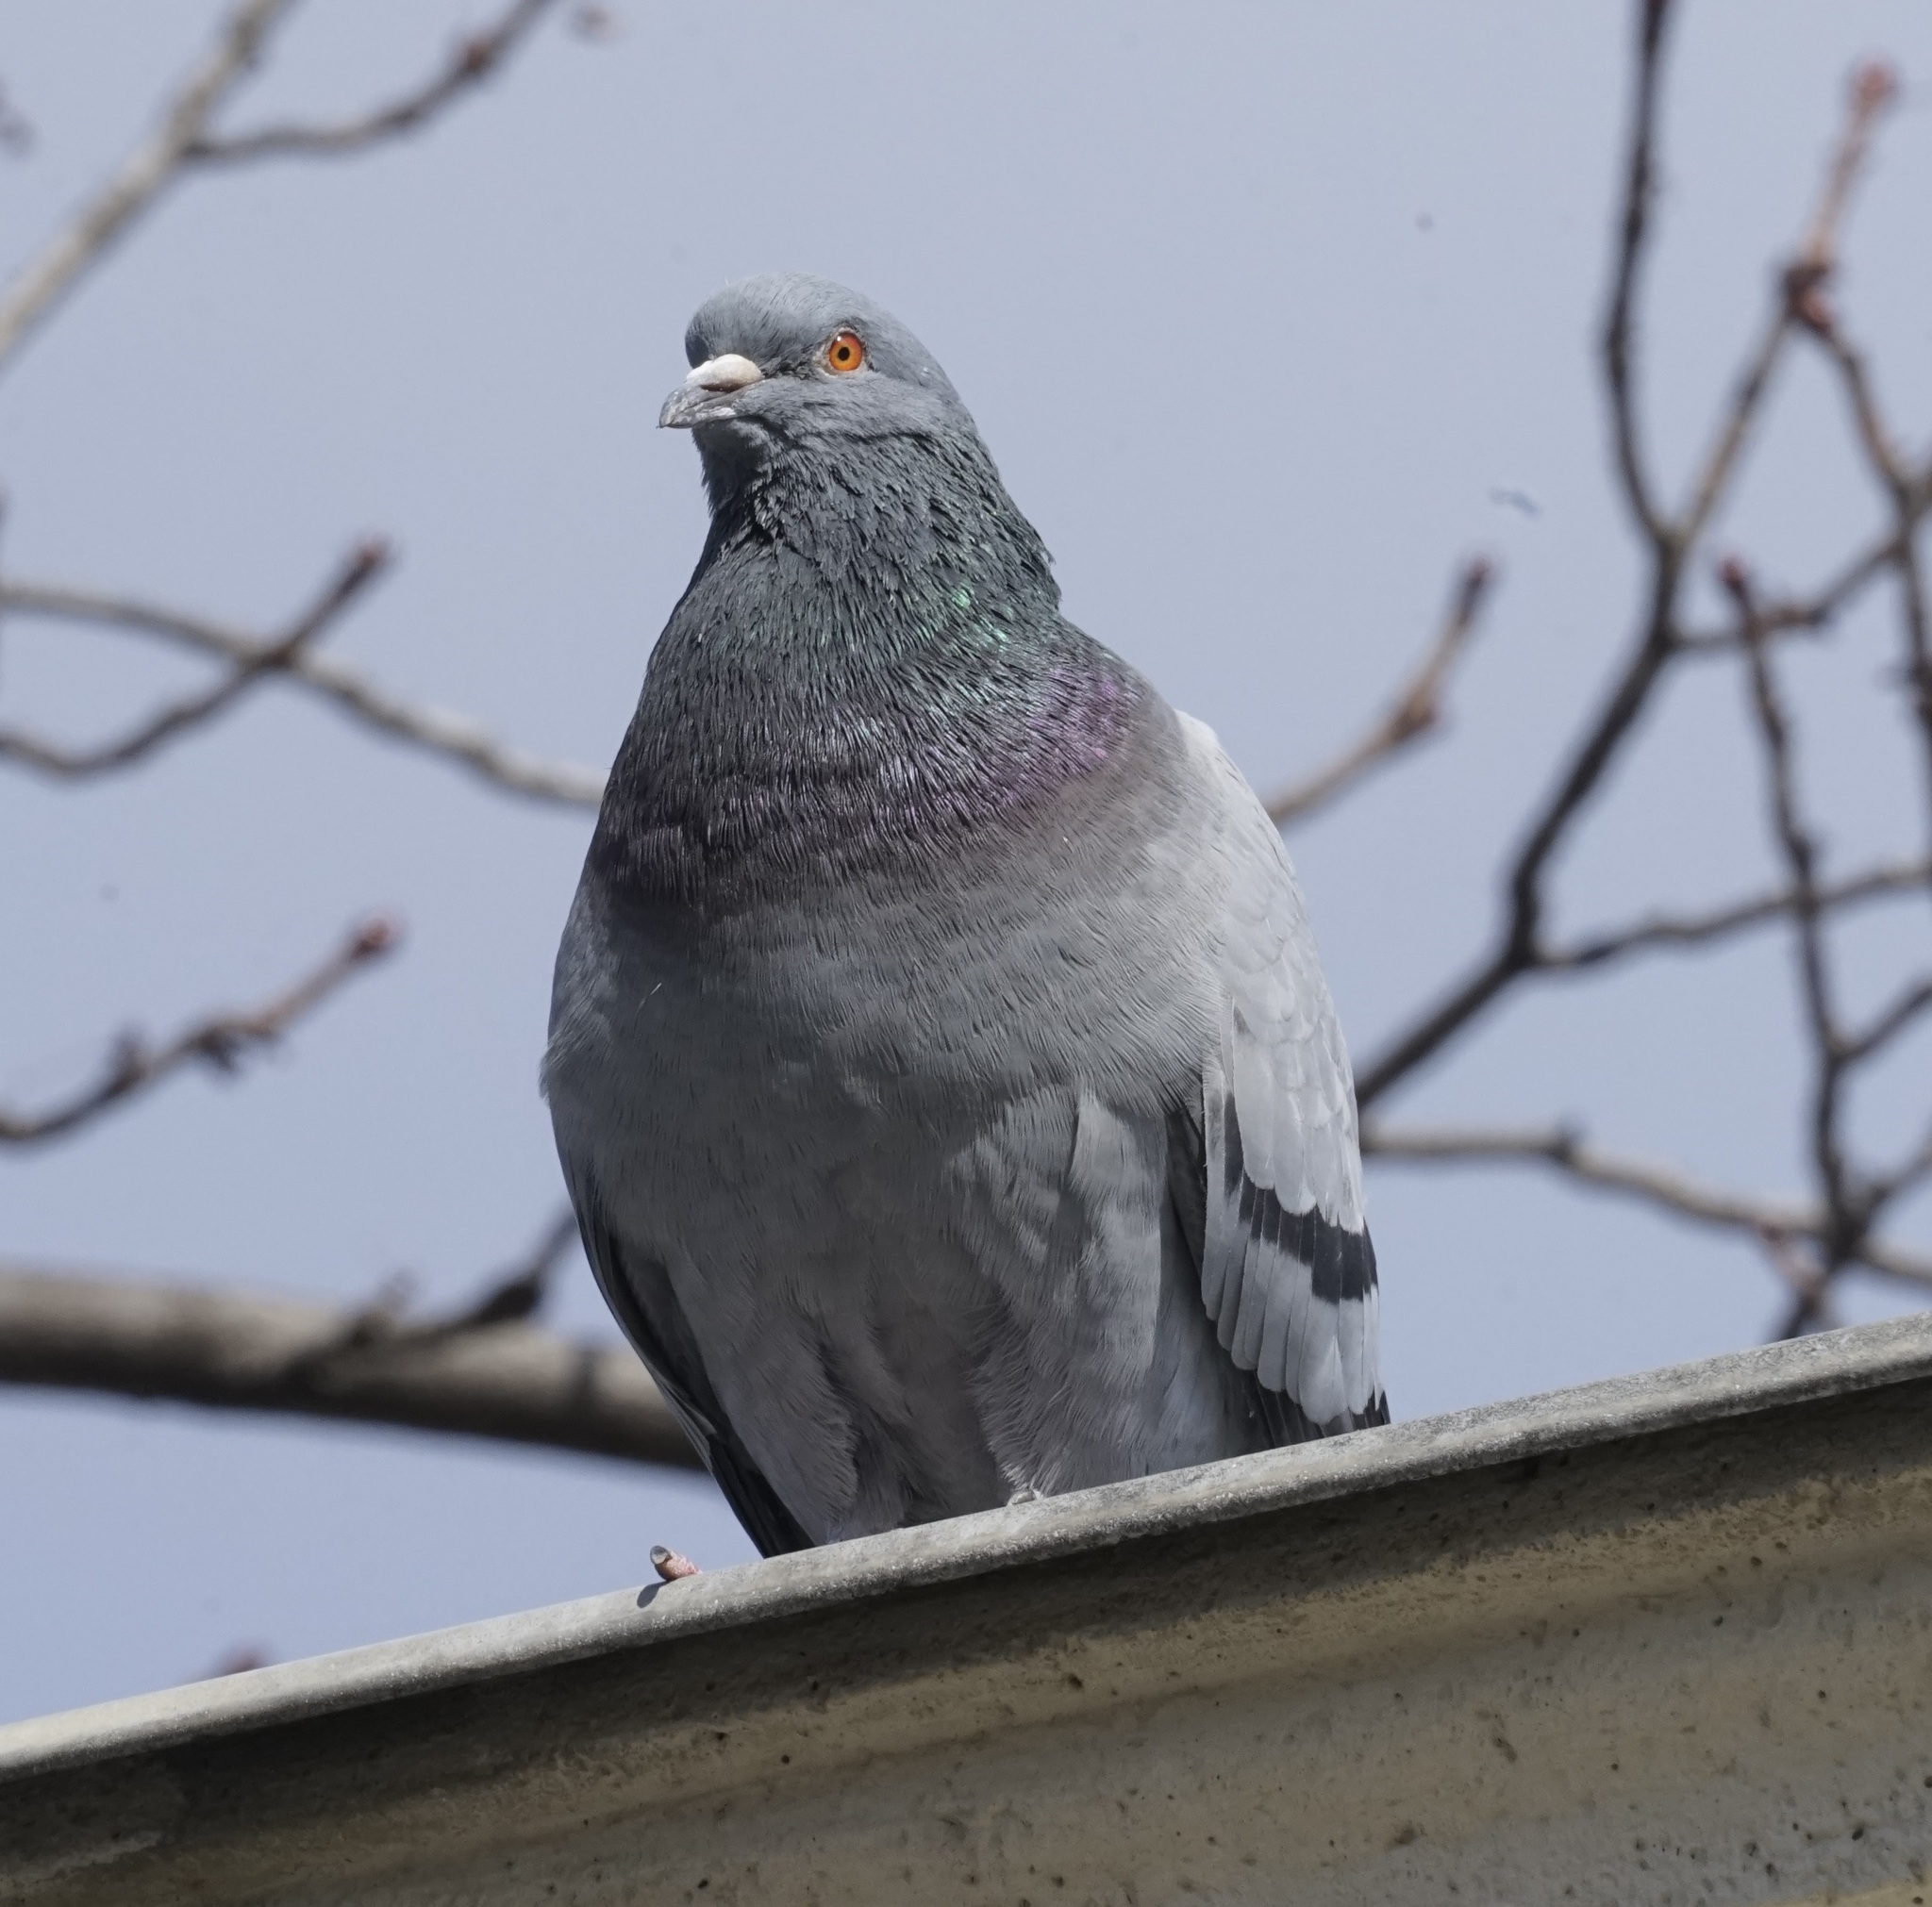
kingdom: Animalia
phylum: Chordata
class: Aves
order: Columbiformes
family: Columbidae
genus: Columba
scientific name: Columba livia
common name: Rock pigeon
